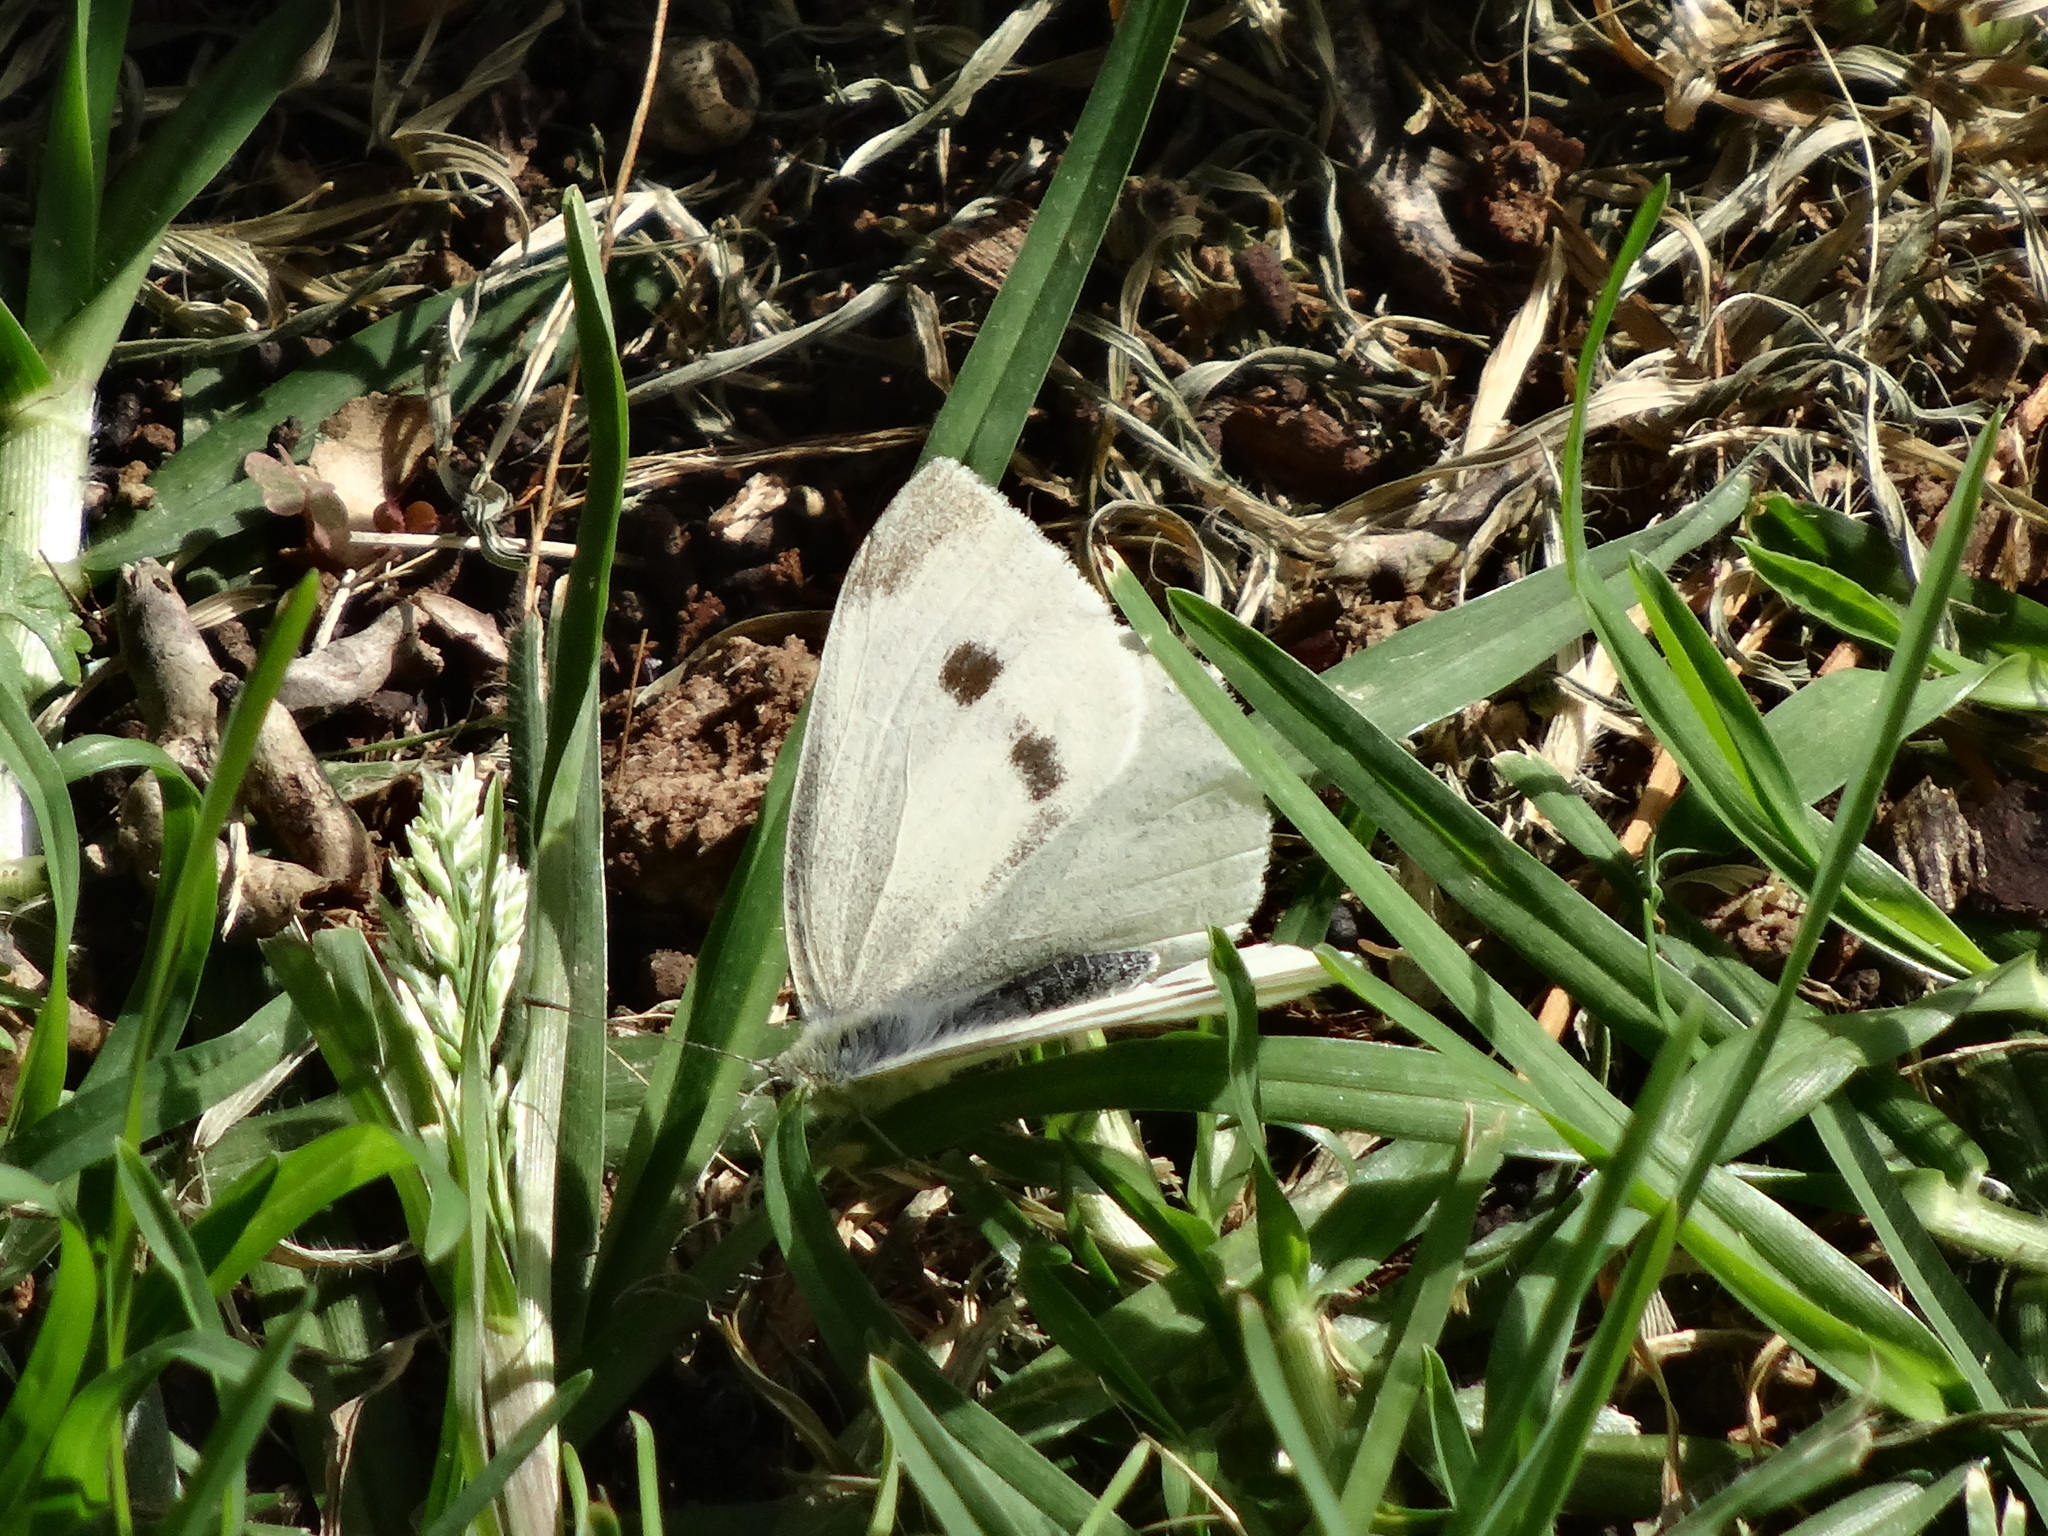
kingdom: Animalia
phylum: Arthropoda
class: Insecta
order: Lepidoptera
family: Pieridae
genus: Pieris
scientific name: Pieris rapae
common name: Small white
